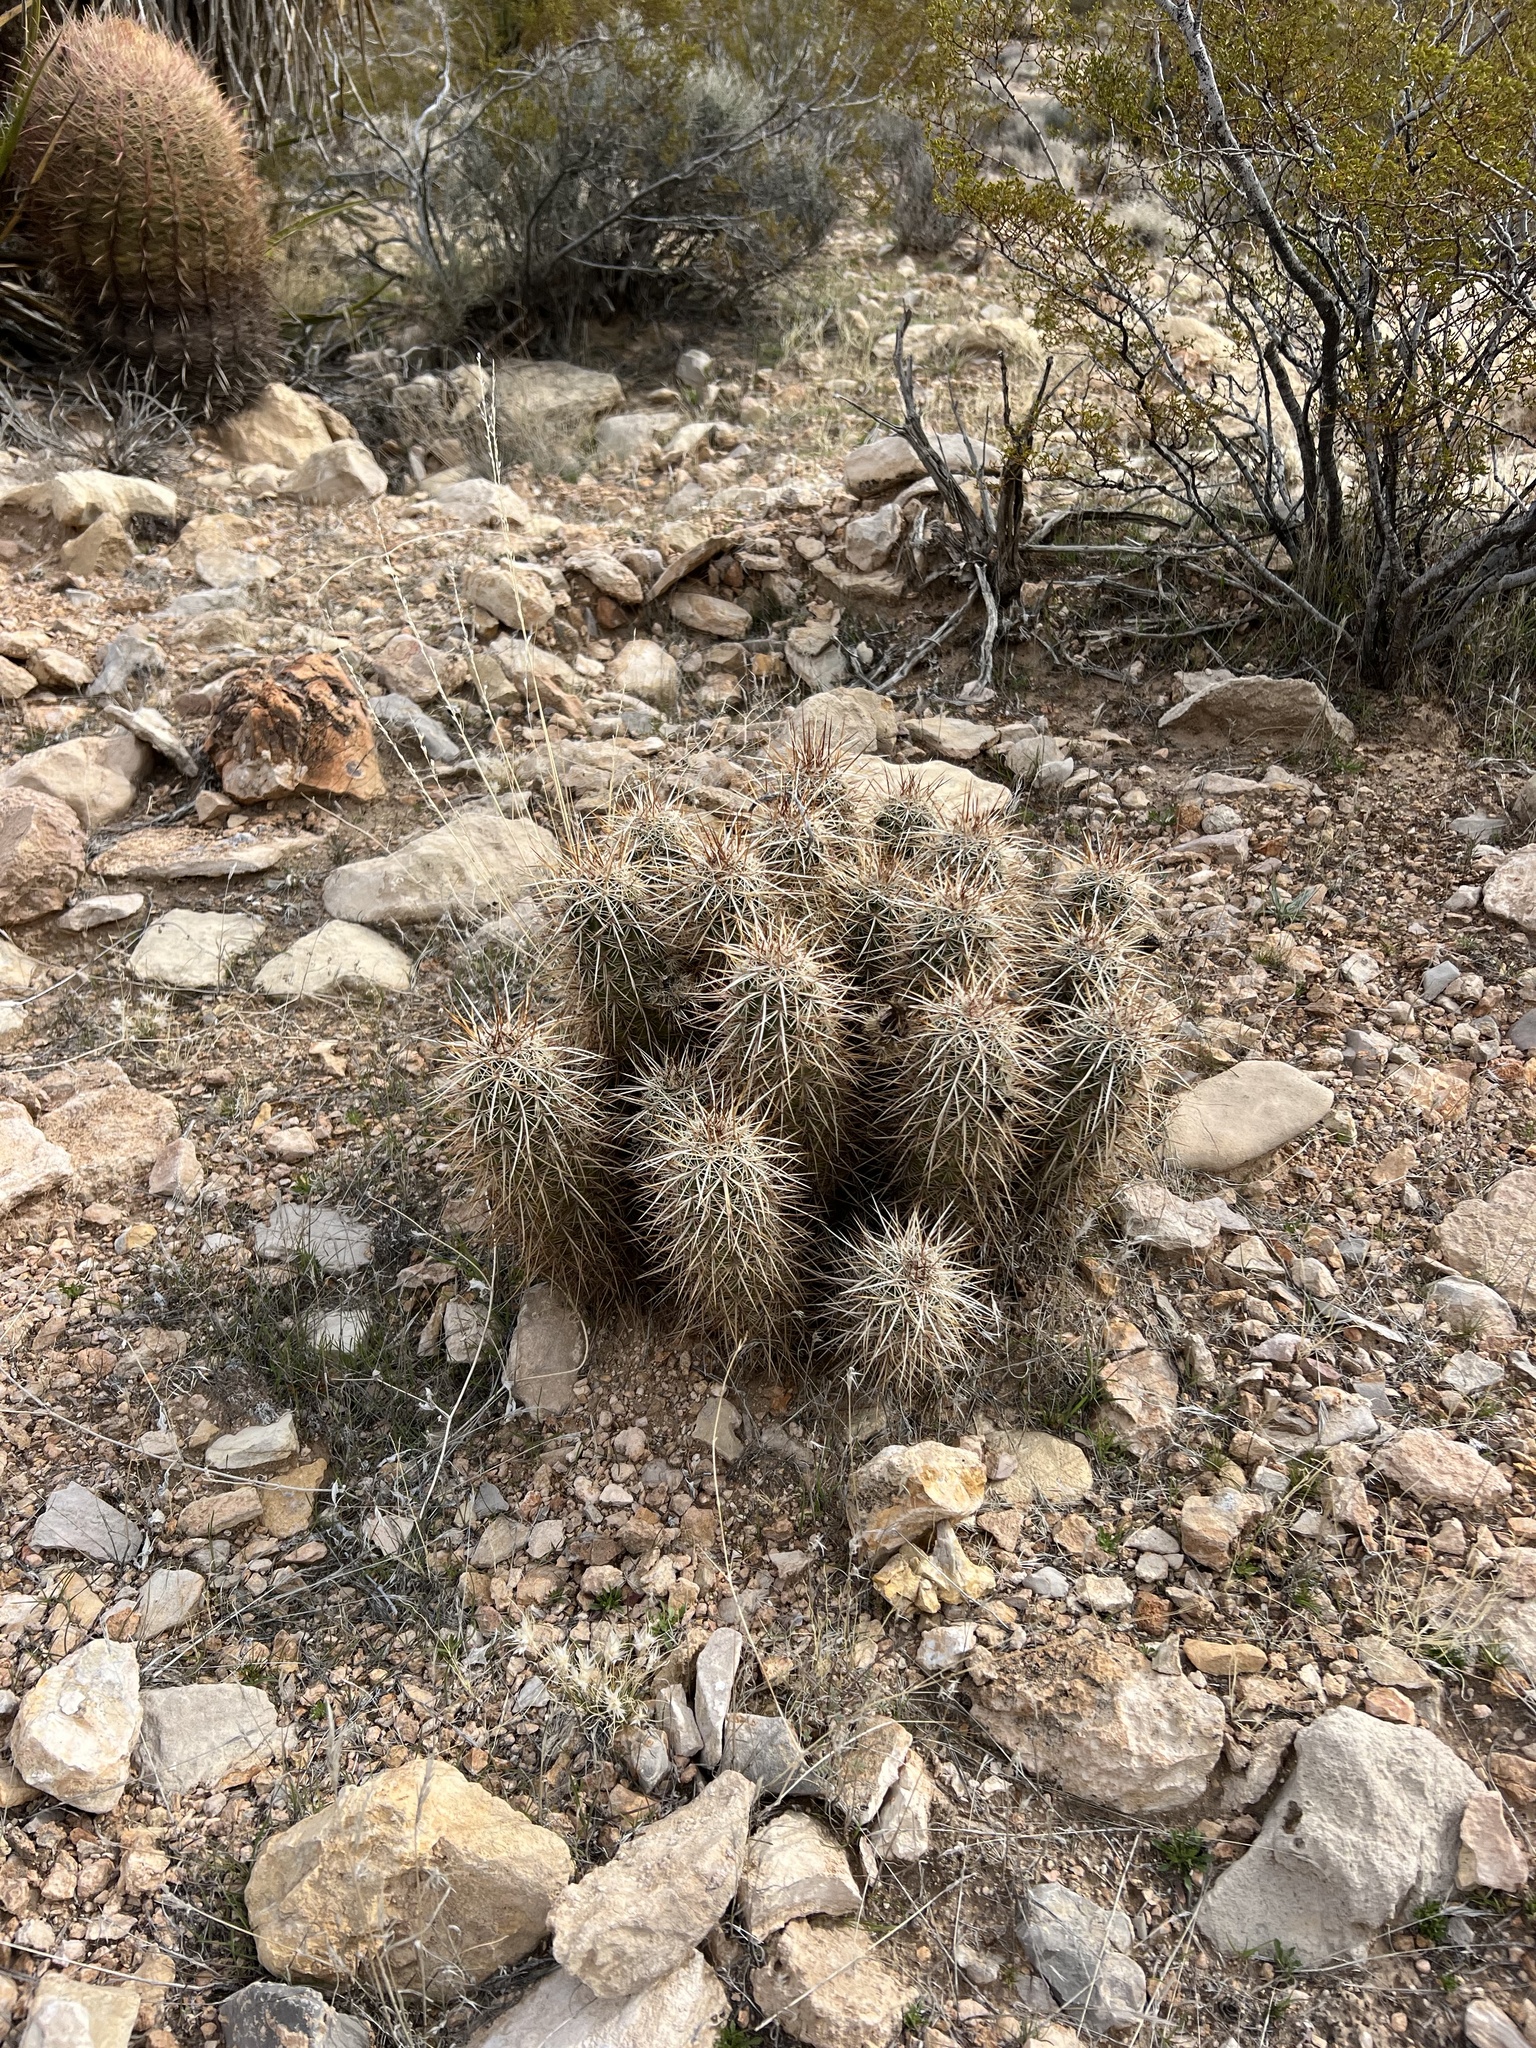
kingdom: Plantae
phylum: Tracheophyta
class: Magnoliopsida
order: Caryophyllales
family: Cactaceae
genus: Echinocereus
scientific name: Echinocereus engelmannii
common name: Engelmann's hedgehog cactus
